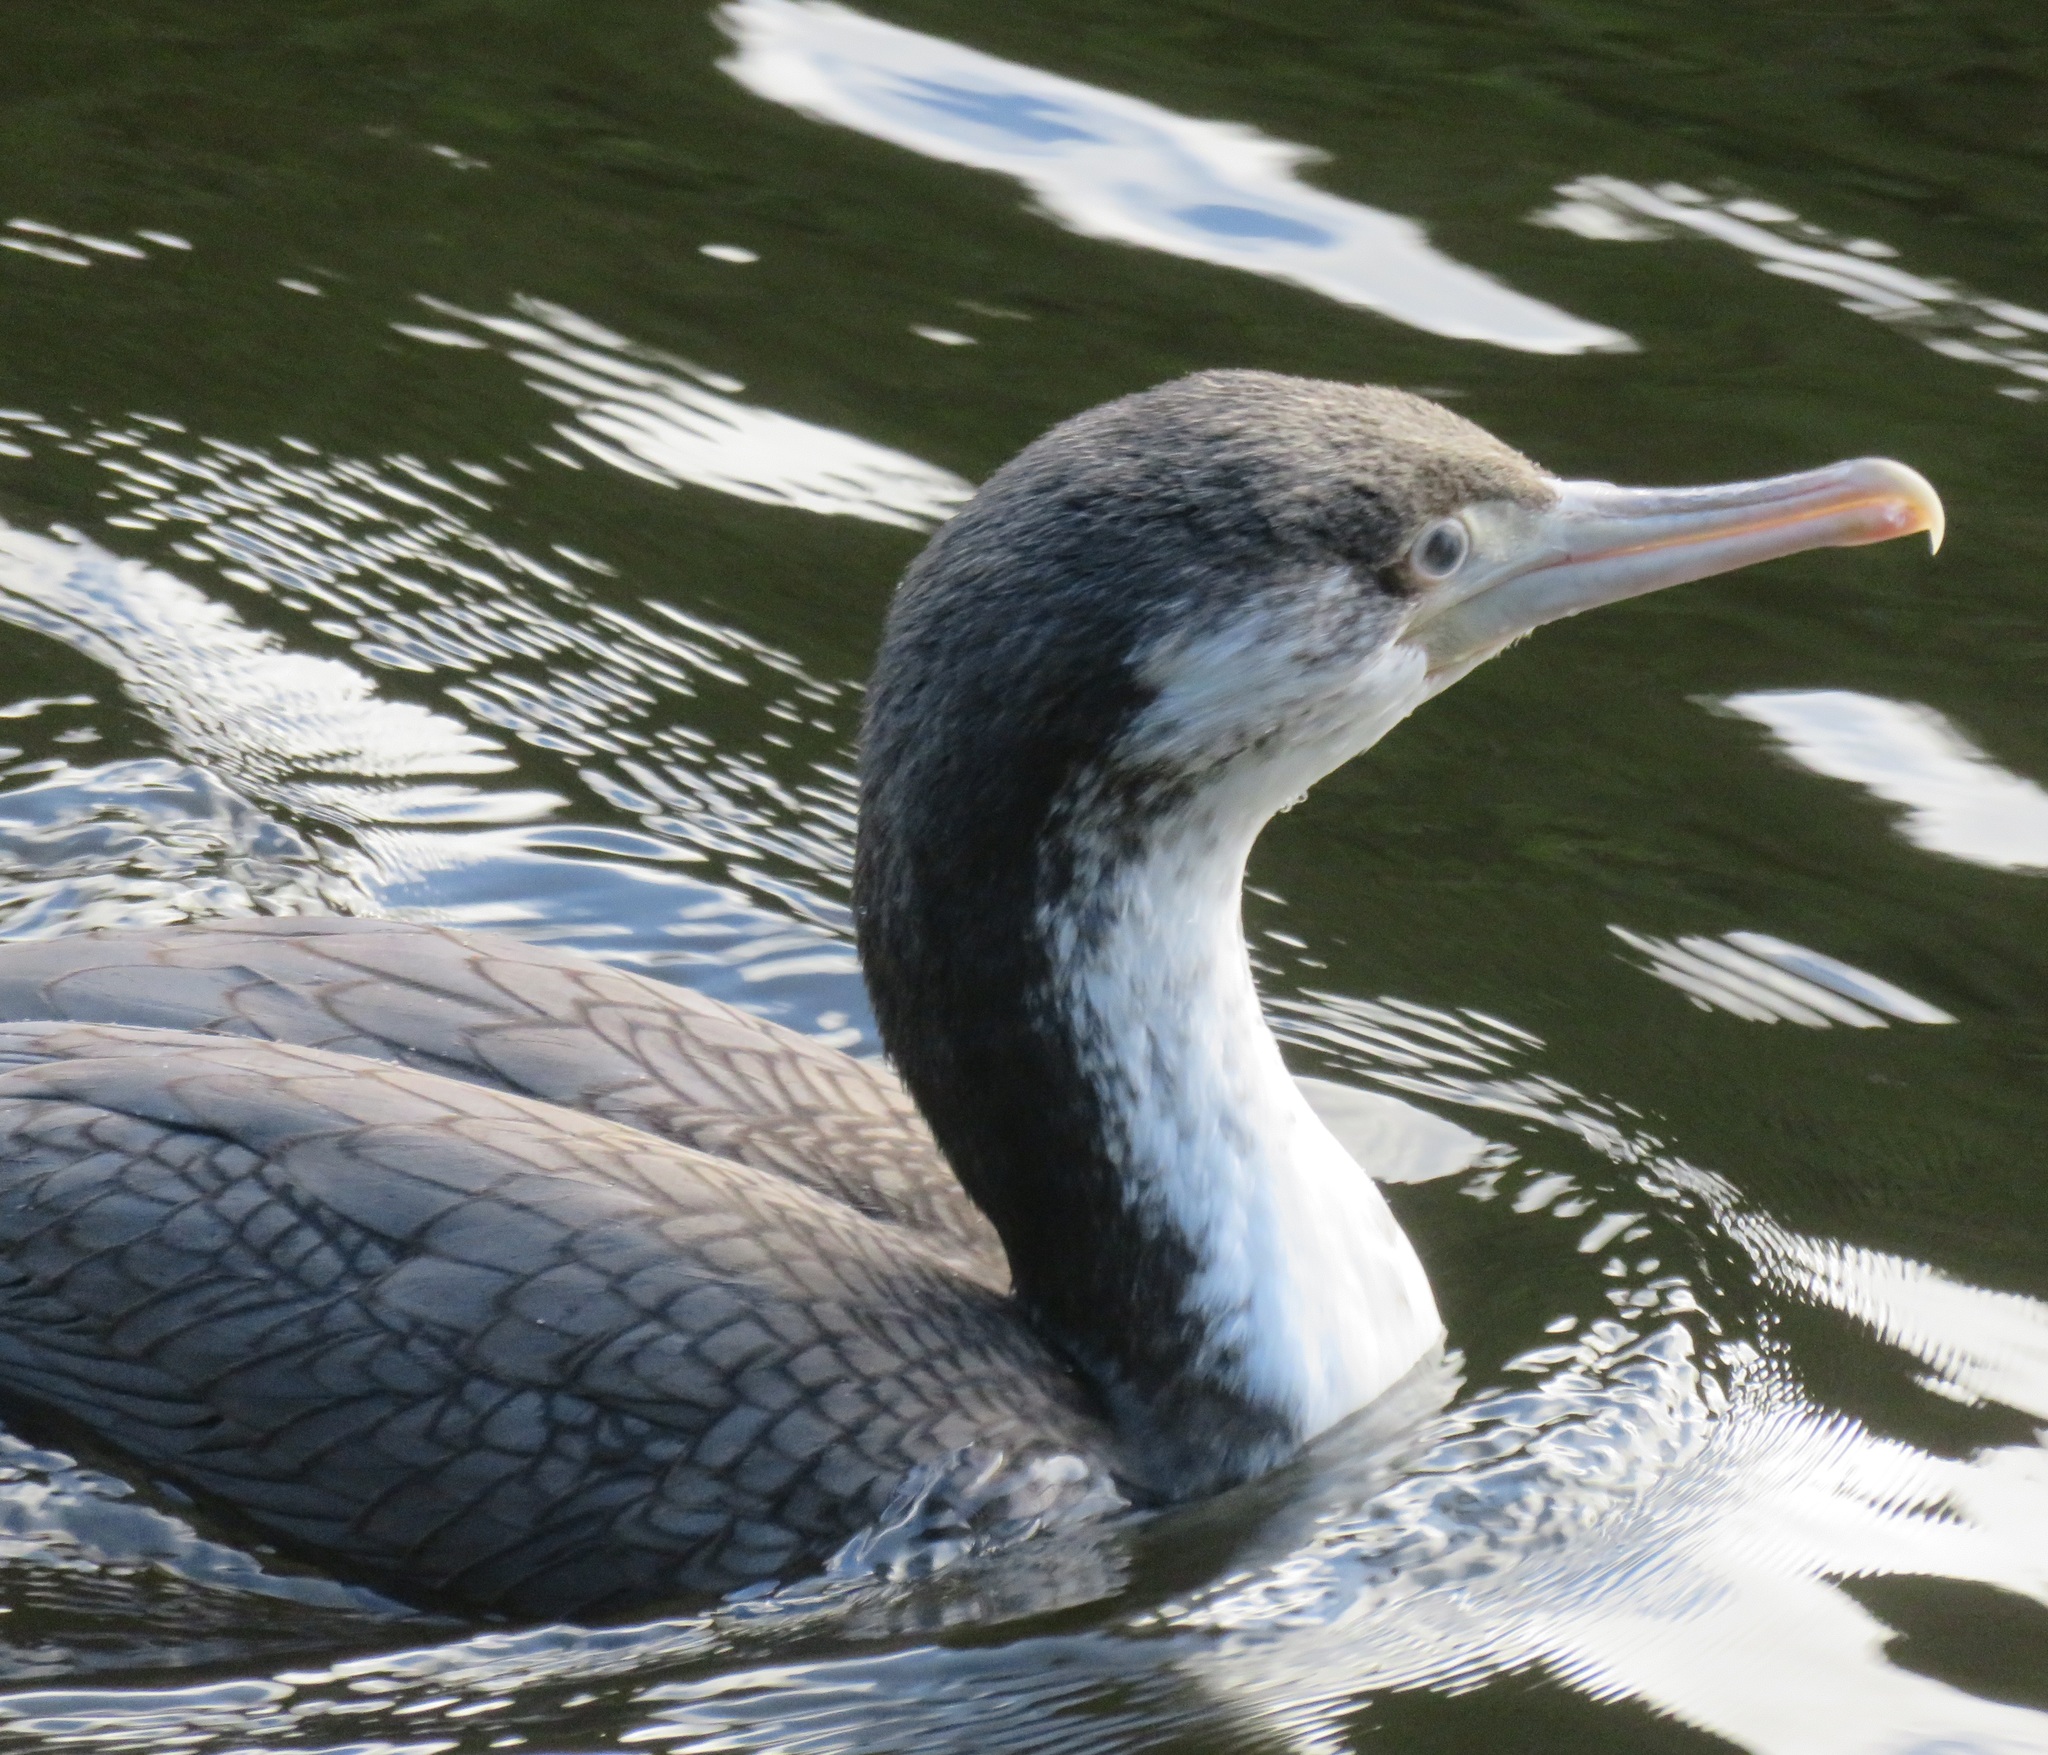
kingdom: Animalia
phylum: Chordata
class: Aves
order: Suliformes
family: Phalacrocoracidae
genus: Phalacrocorax
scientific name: Phalacrocorax varius
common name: Pied cormorant
